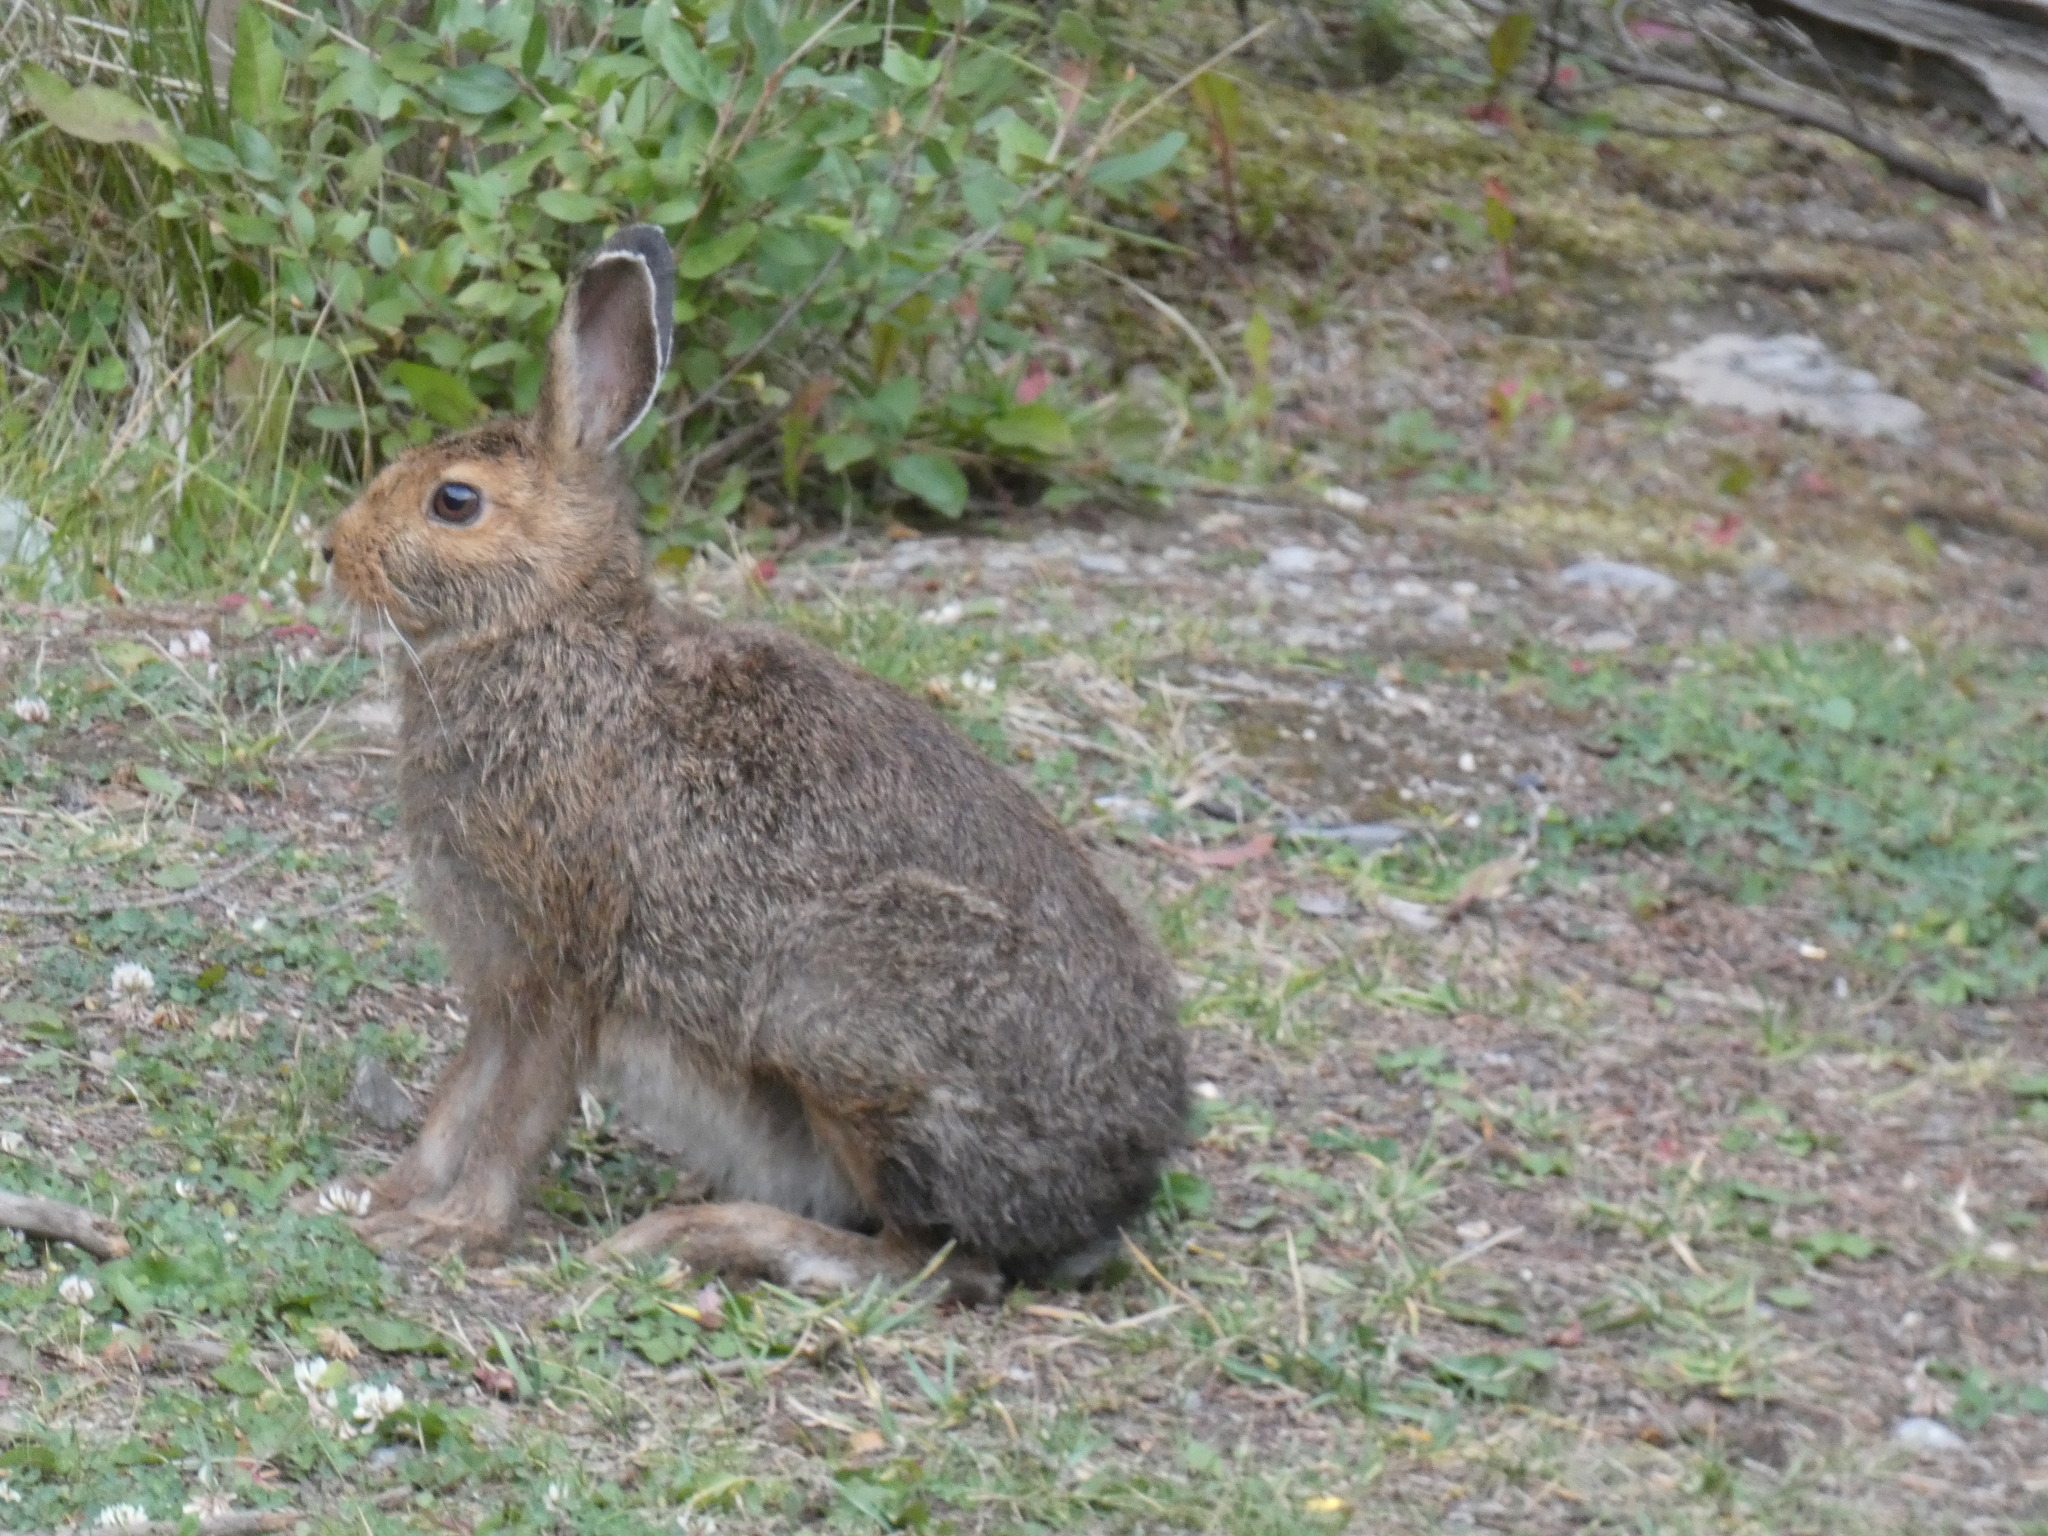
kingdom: Animalia
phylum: Chordata
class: Mammalia
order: Lagomorpha
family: Leporidae
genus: Lepus
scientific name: Lepus americanus
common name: Snowshoe hare
